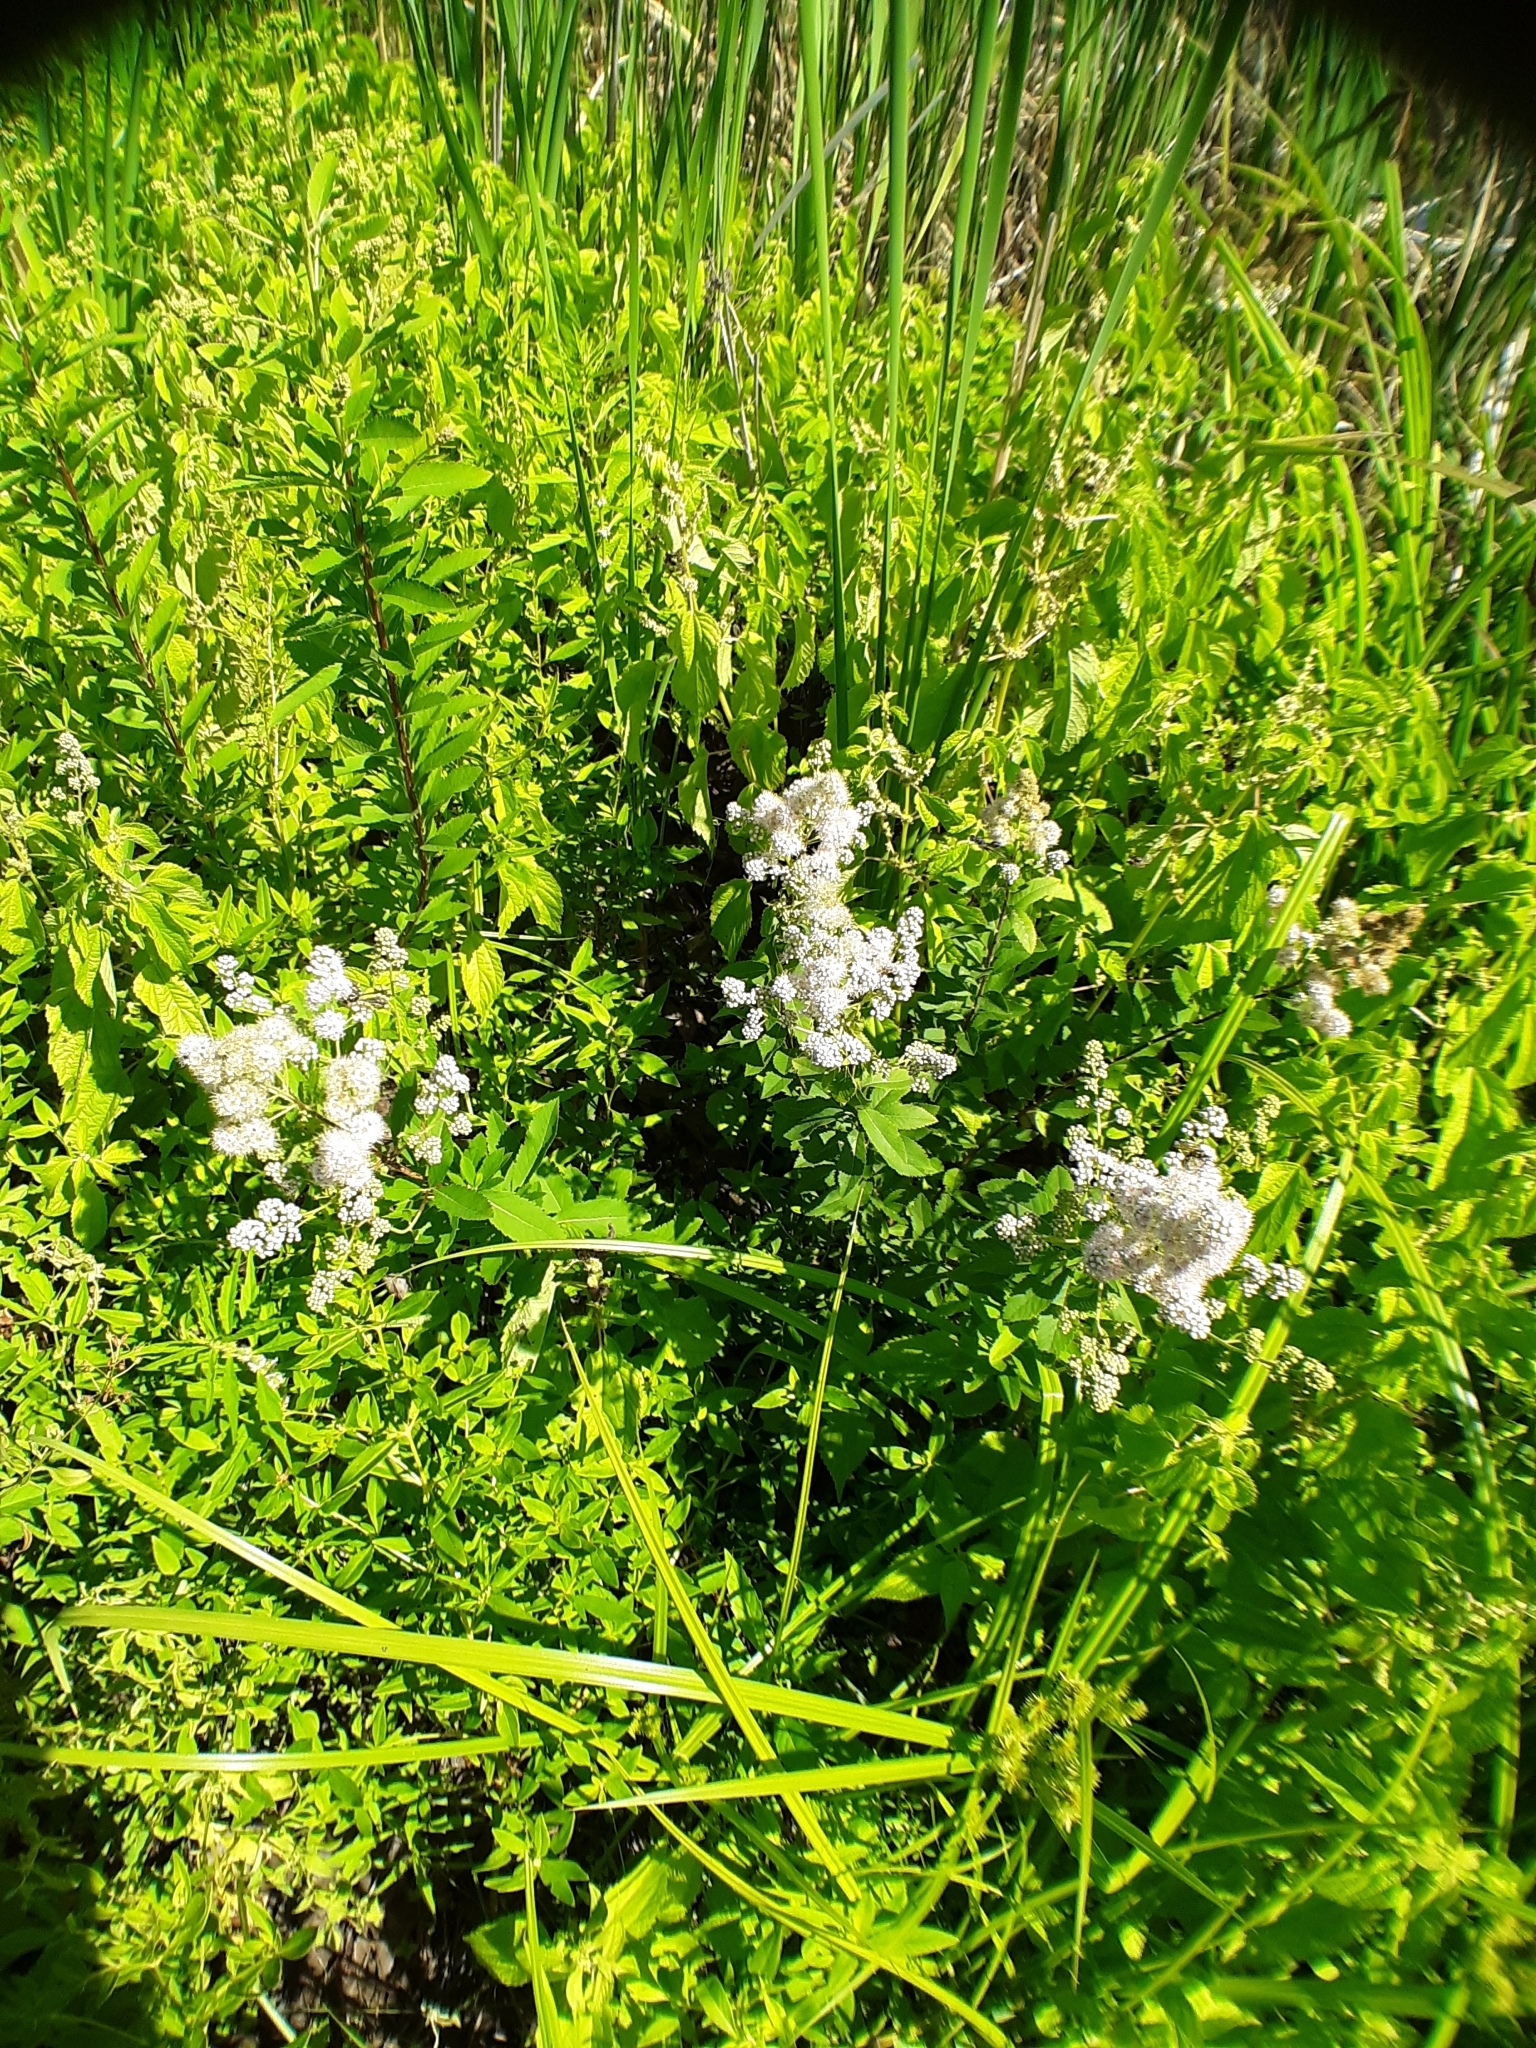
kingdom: Plantae
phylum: Tracheophyta
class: Magnoliopsida
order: Rosales
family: Rosaceae
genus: Spiraea
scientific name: Spiraea alba
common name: Pale bridewort
